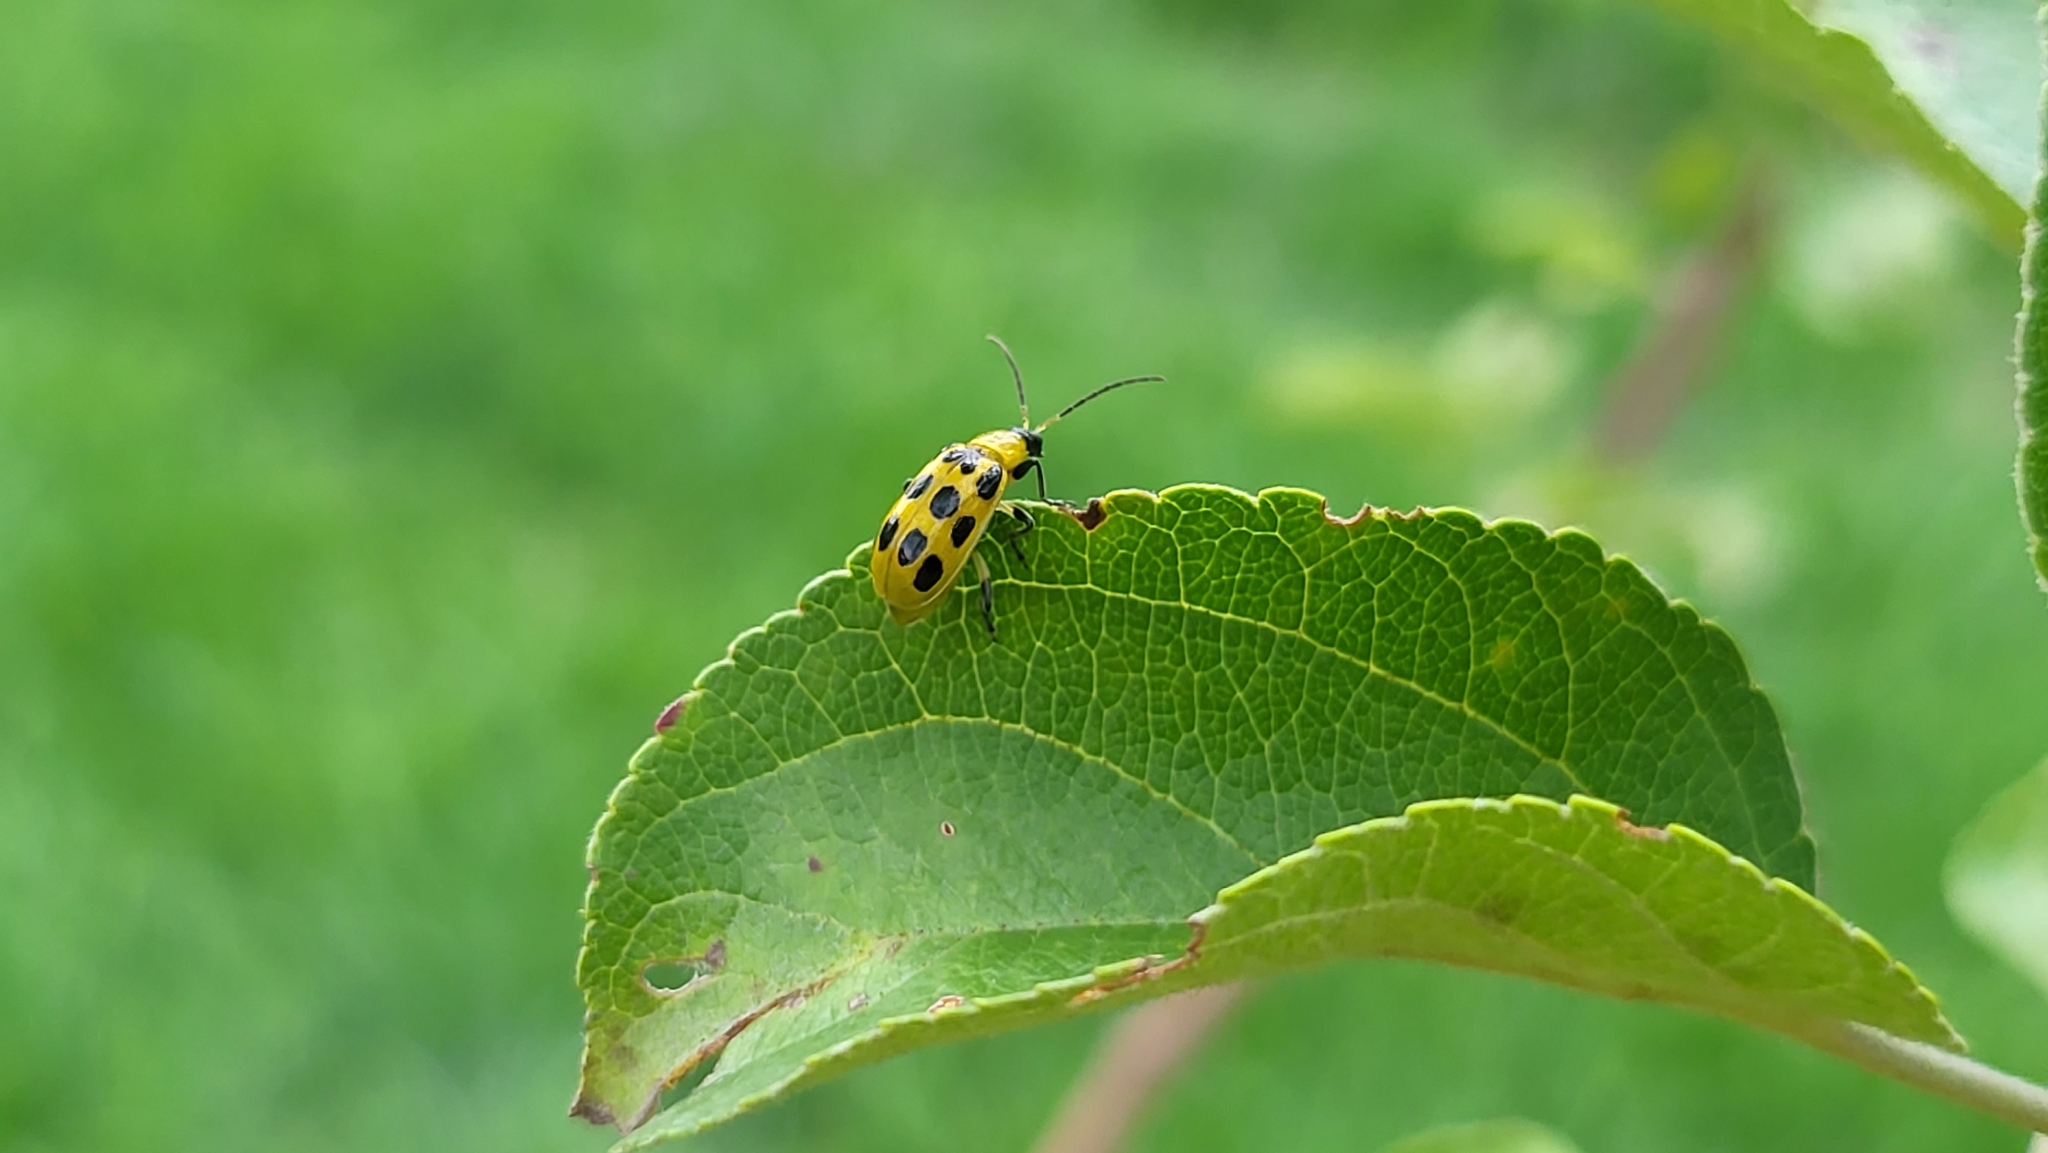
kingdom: Animalia
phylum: Arthropoda
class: Insecta
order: Coleoptera
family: Chrysomelidae
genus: Diabrotica
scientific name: Diabrotica undecimpunctata
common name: Spotted cucumber beetle
